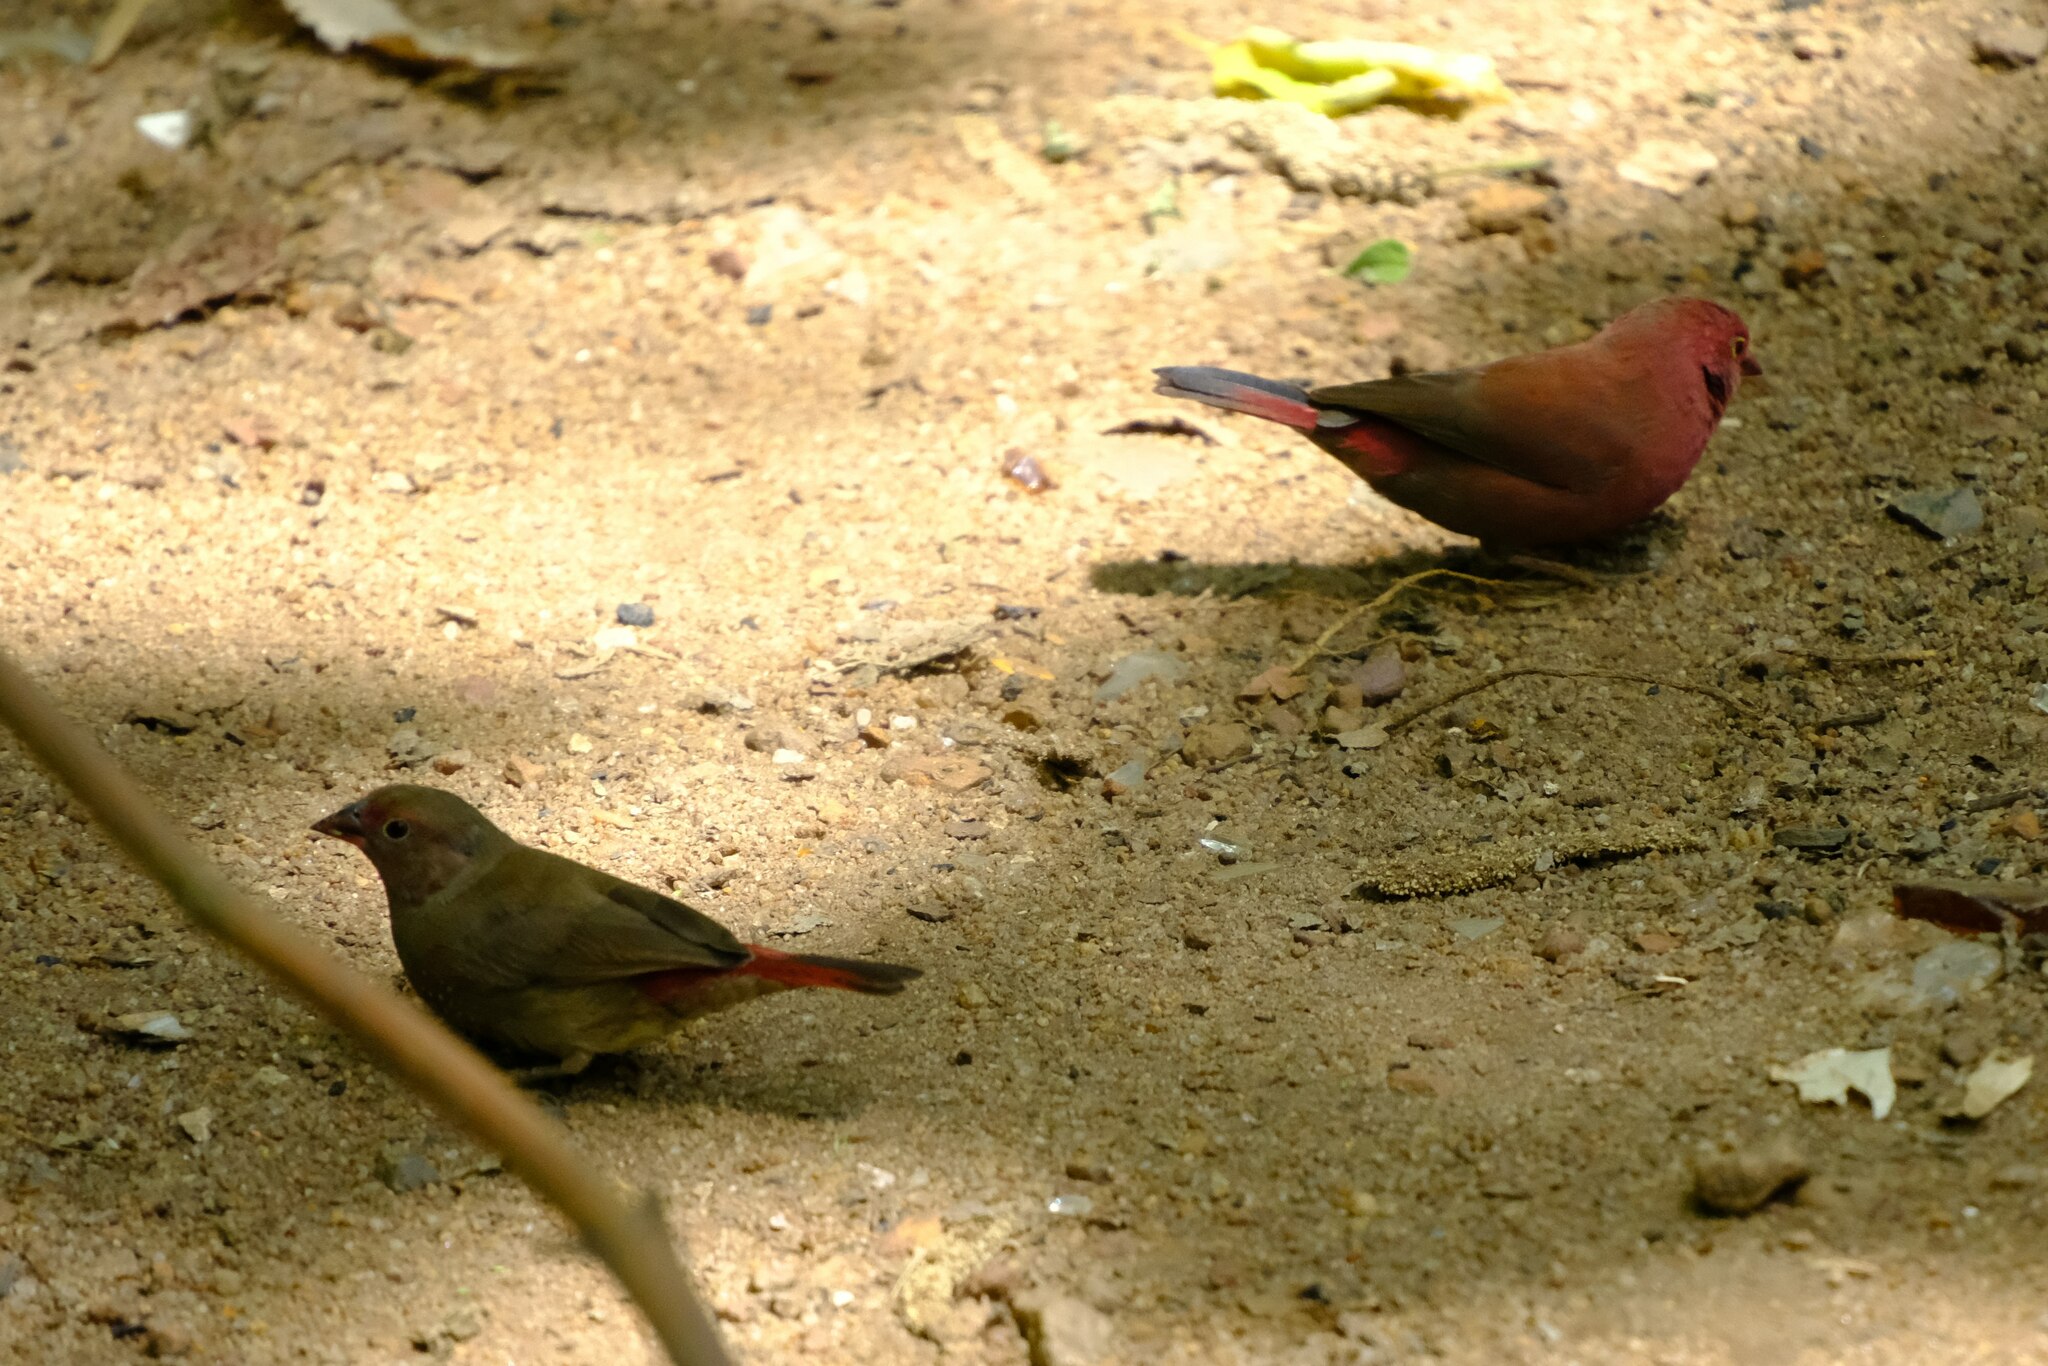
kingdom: Animalia
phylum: Chordata
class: Aves
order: Passeriformes
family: Estrildidae
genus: Lagonosticta
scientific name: Lagonosticta senegala
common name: Red-billed firefinch
